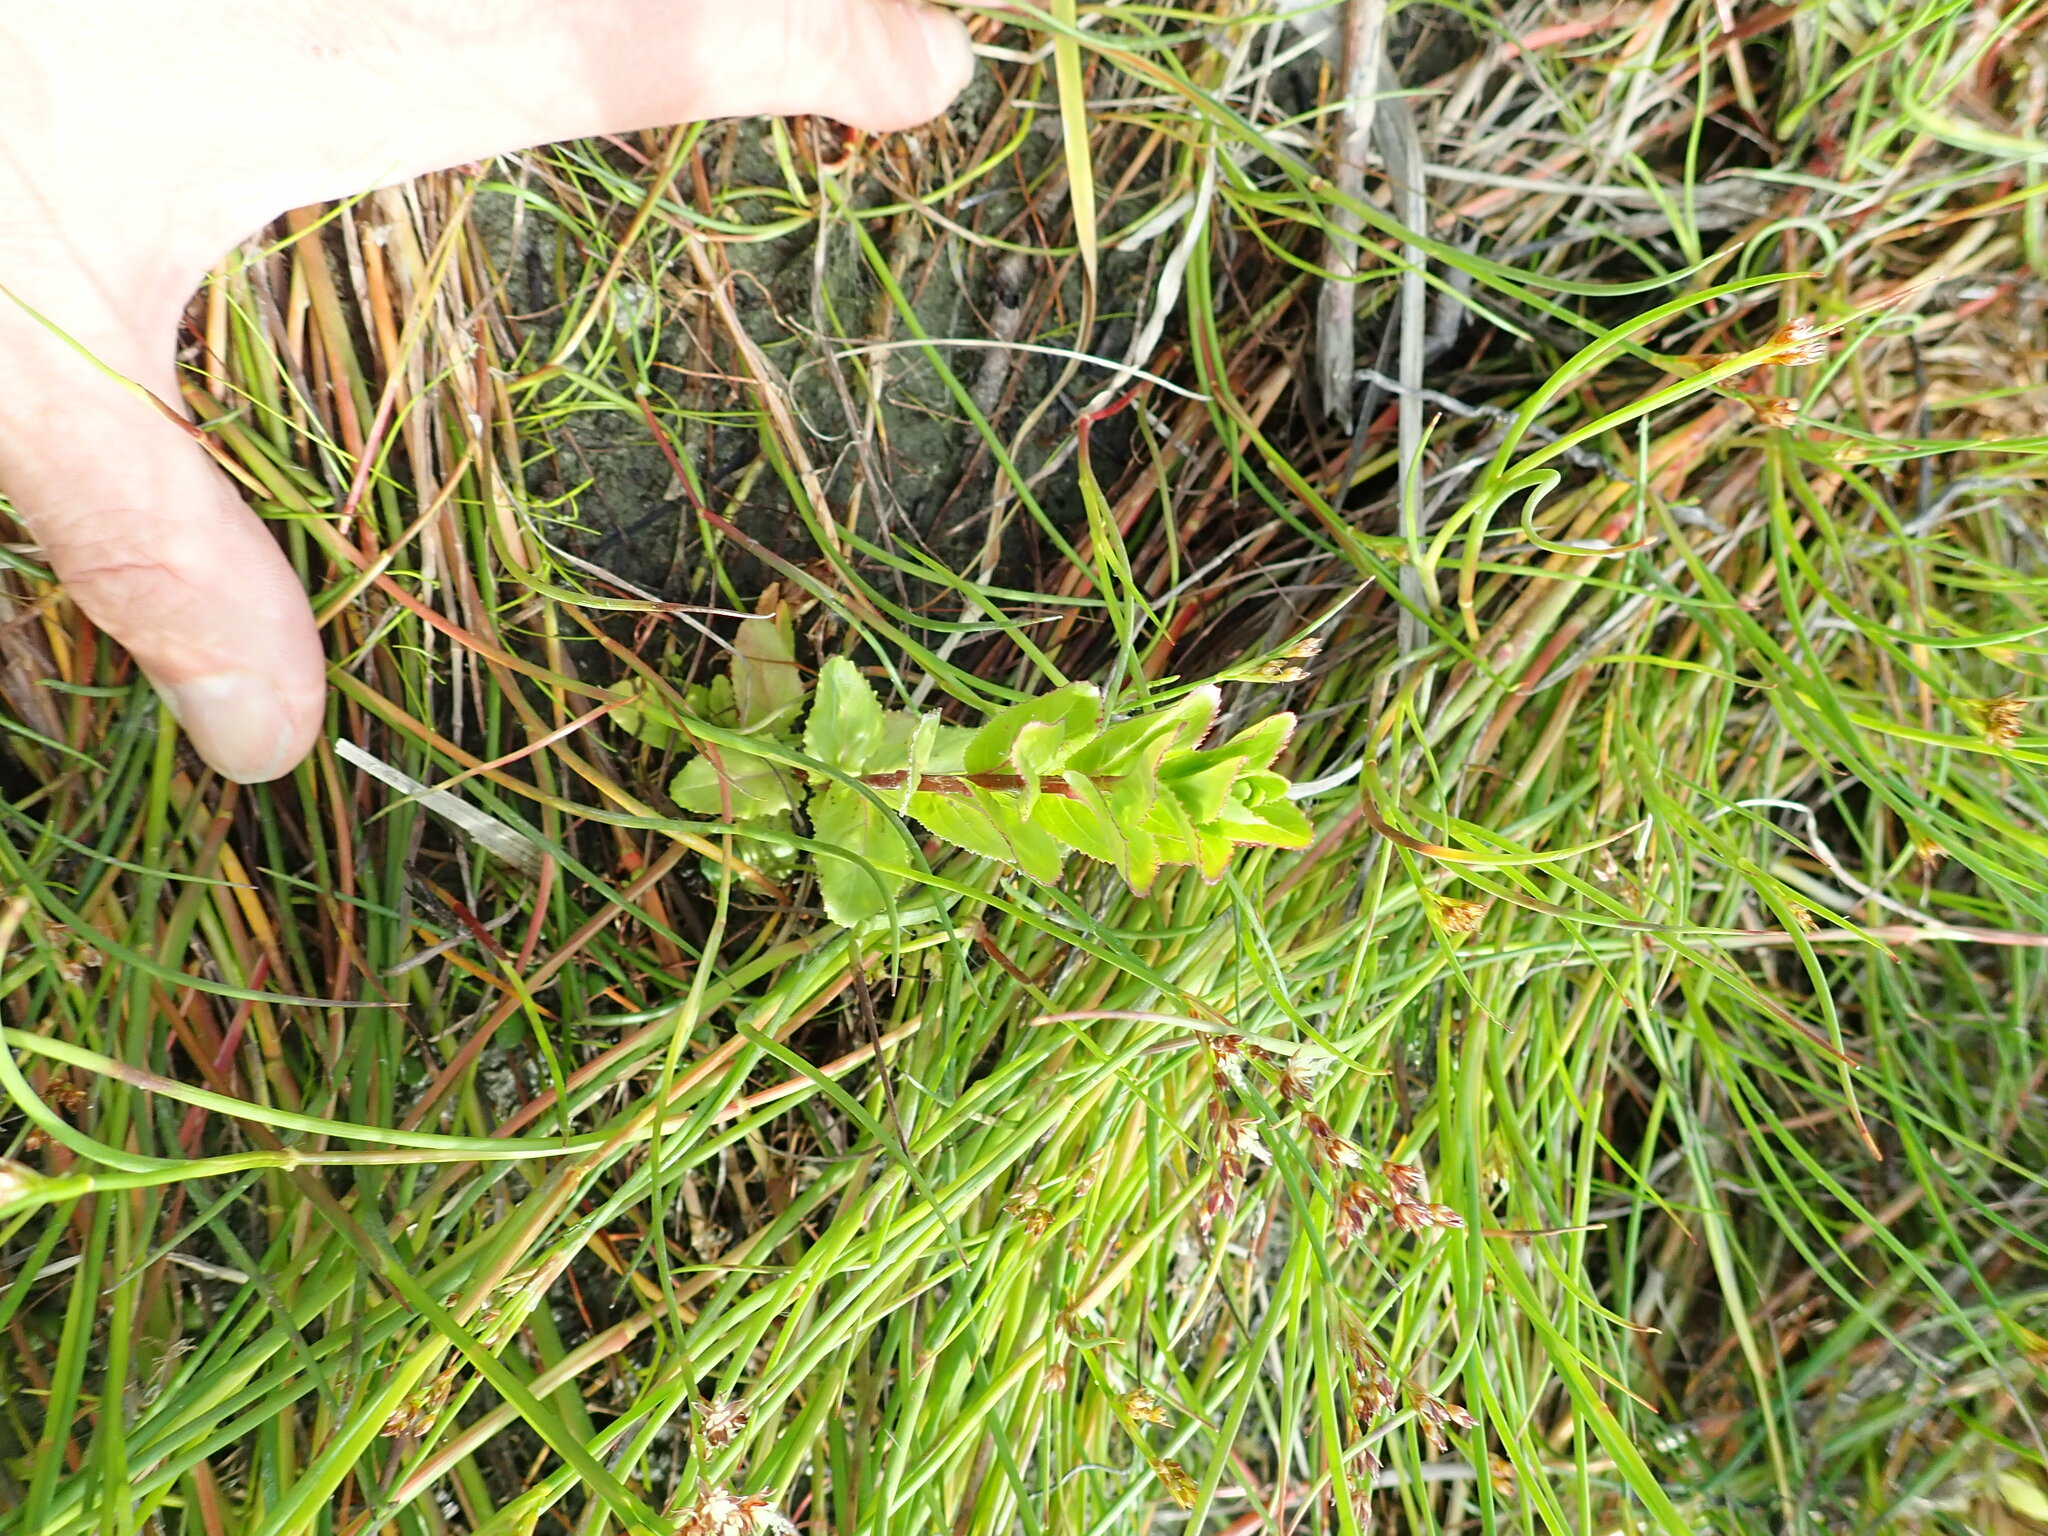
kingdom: Plantae
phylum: Tracheophyta
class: Magnoliopsida
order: Myrtales
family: Onagraceae
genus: Epilobium
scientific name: Epilobium billardiereanum
